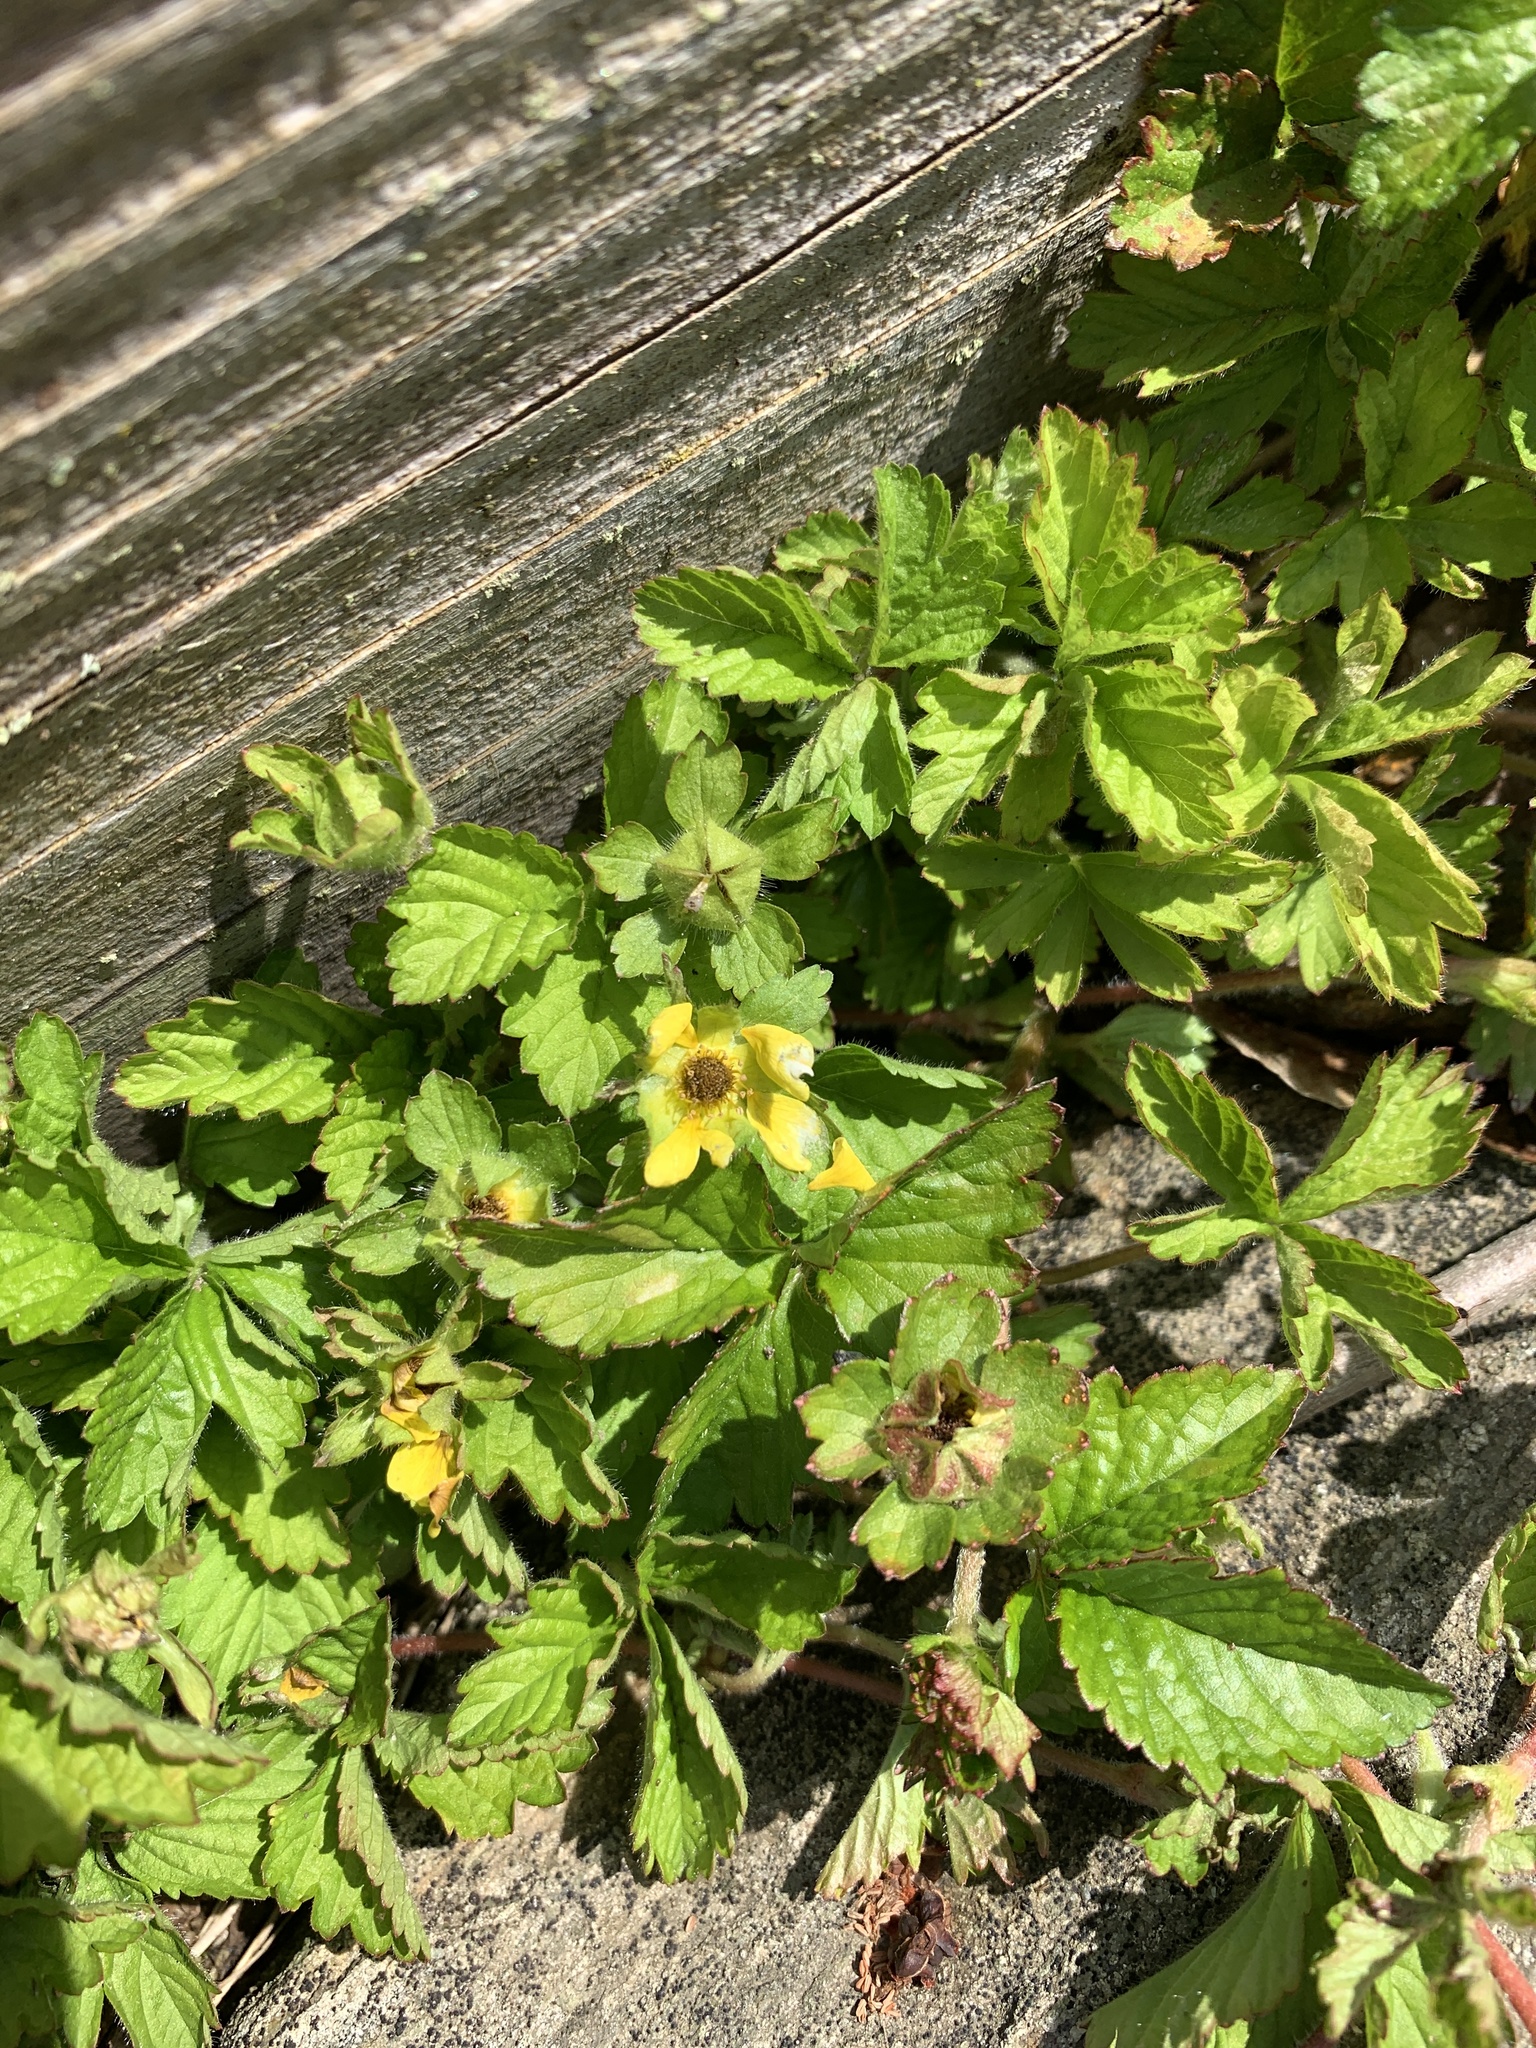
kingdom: Plantae
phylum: Tracheophyta
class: Magnoliopsida
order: Rosales
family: Rosaceae
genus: Potentilla
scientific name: Potentilla indica
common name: Yellow-flowered strawberry
